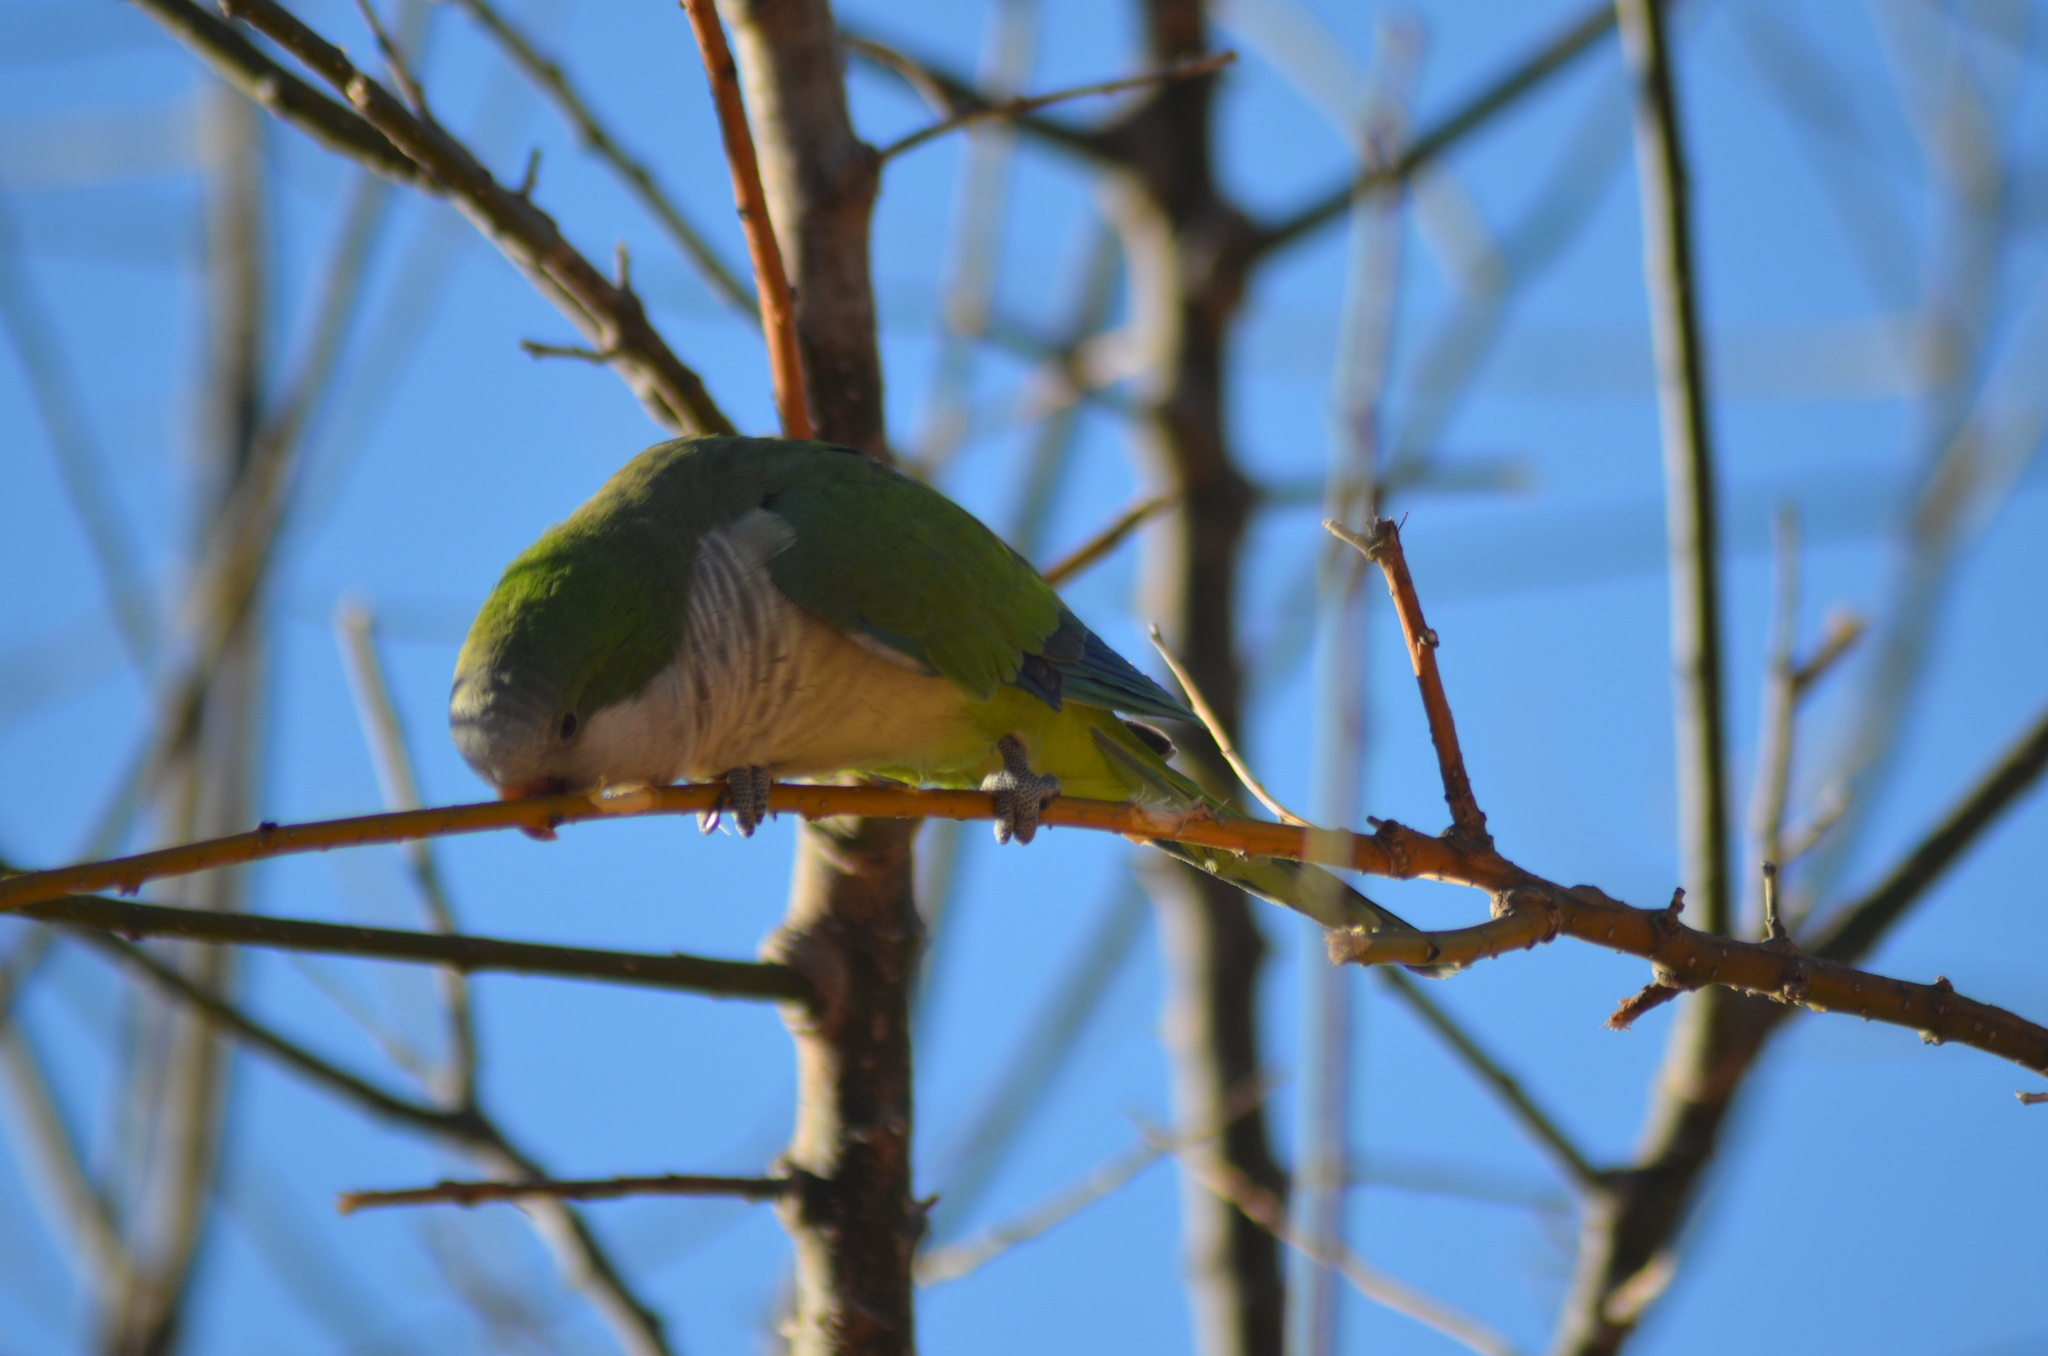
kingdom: Animalia
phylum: Chordata
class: Aves
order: Psittaciformes
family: Psittacidae
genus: Myiopsitta
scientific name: Myiopsitta monachus
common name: Monk parakeet
